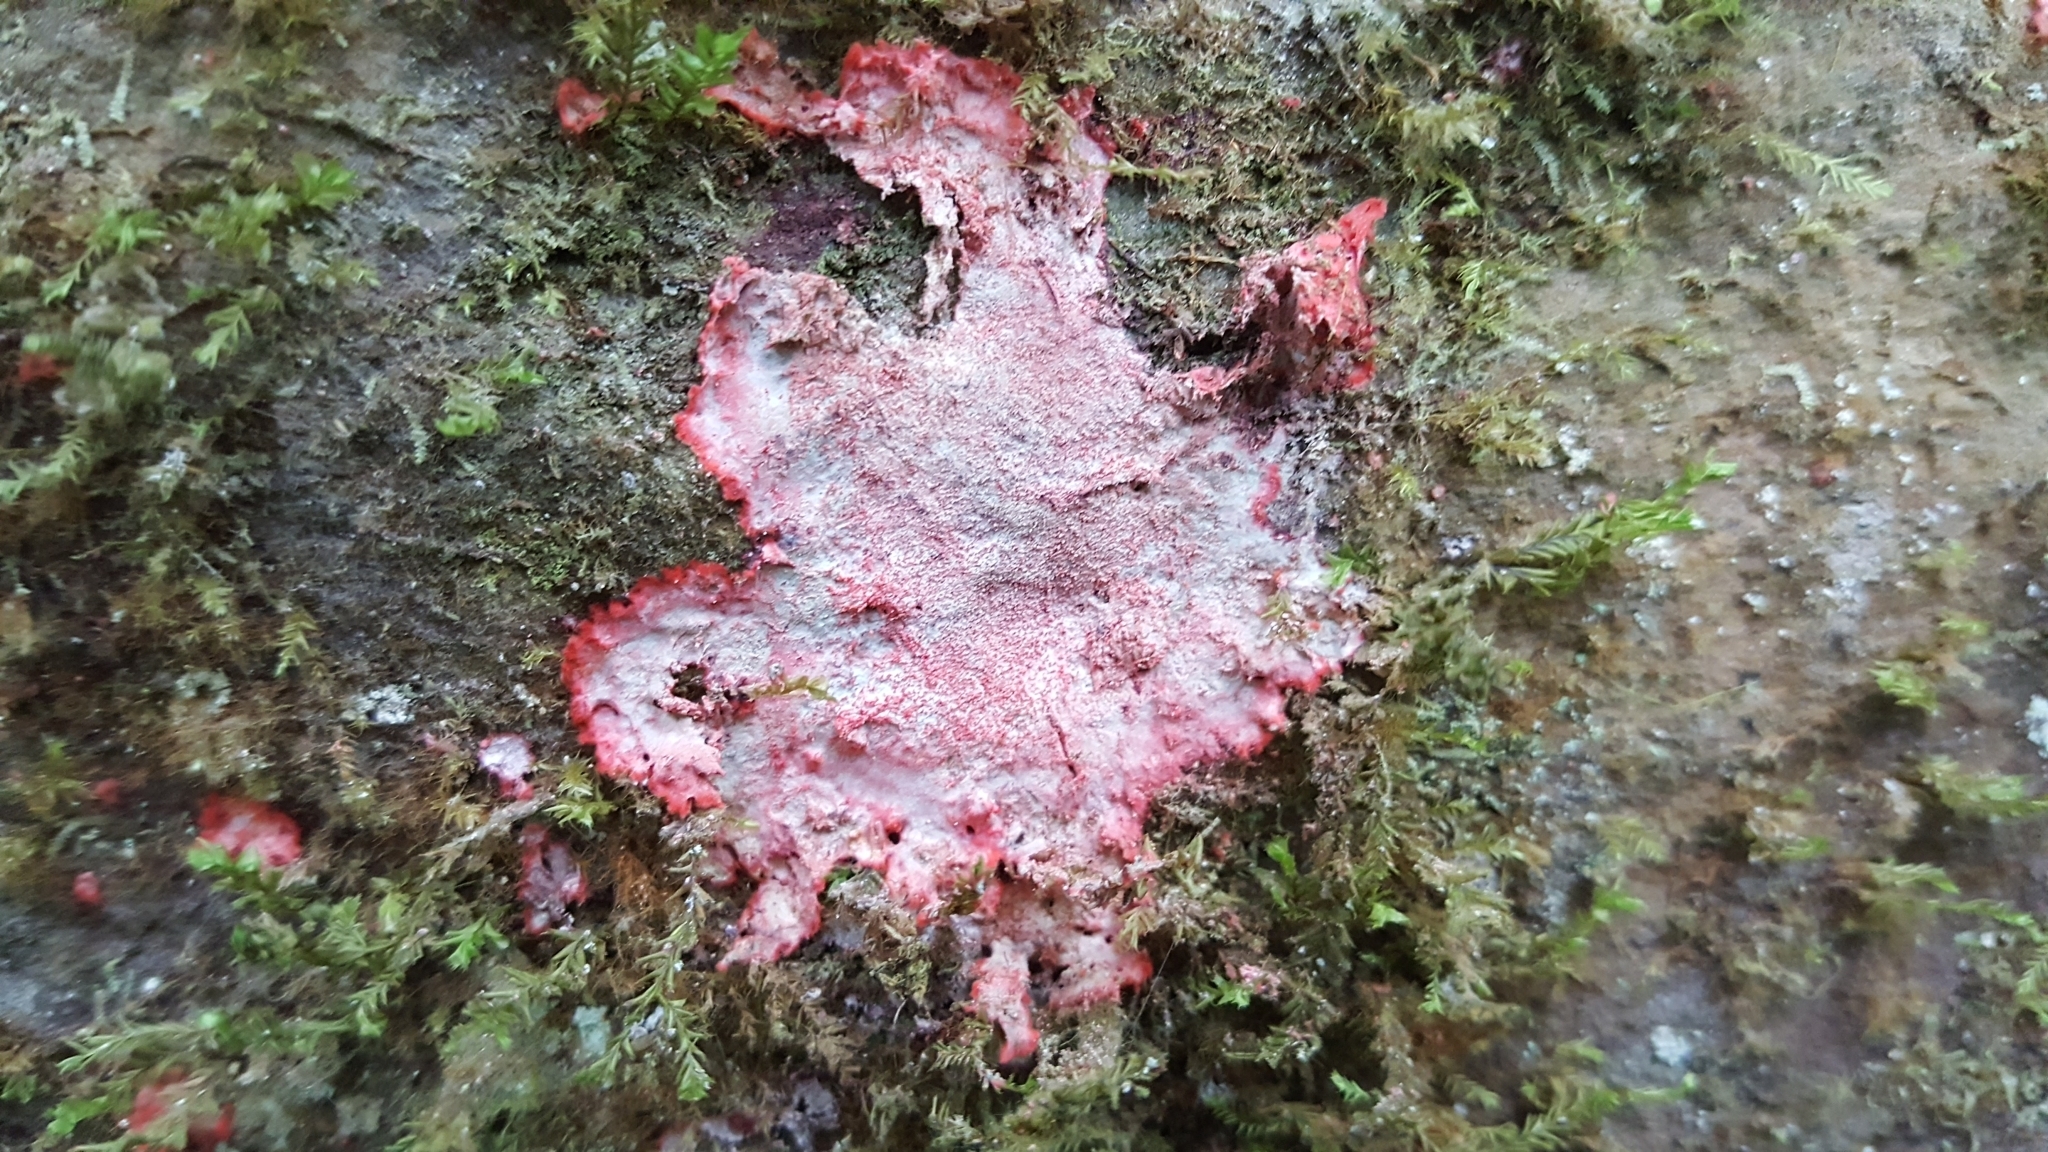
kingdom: Fungi
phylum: Ascomycota
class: Arthoniomycetes
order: Arthoniales
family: Arthoniaceae
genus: Herpothallon
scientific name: Herpothallon rubrocinctum
